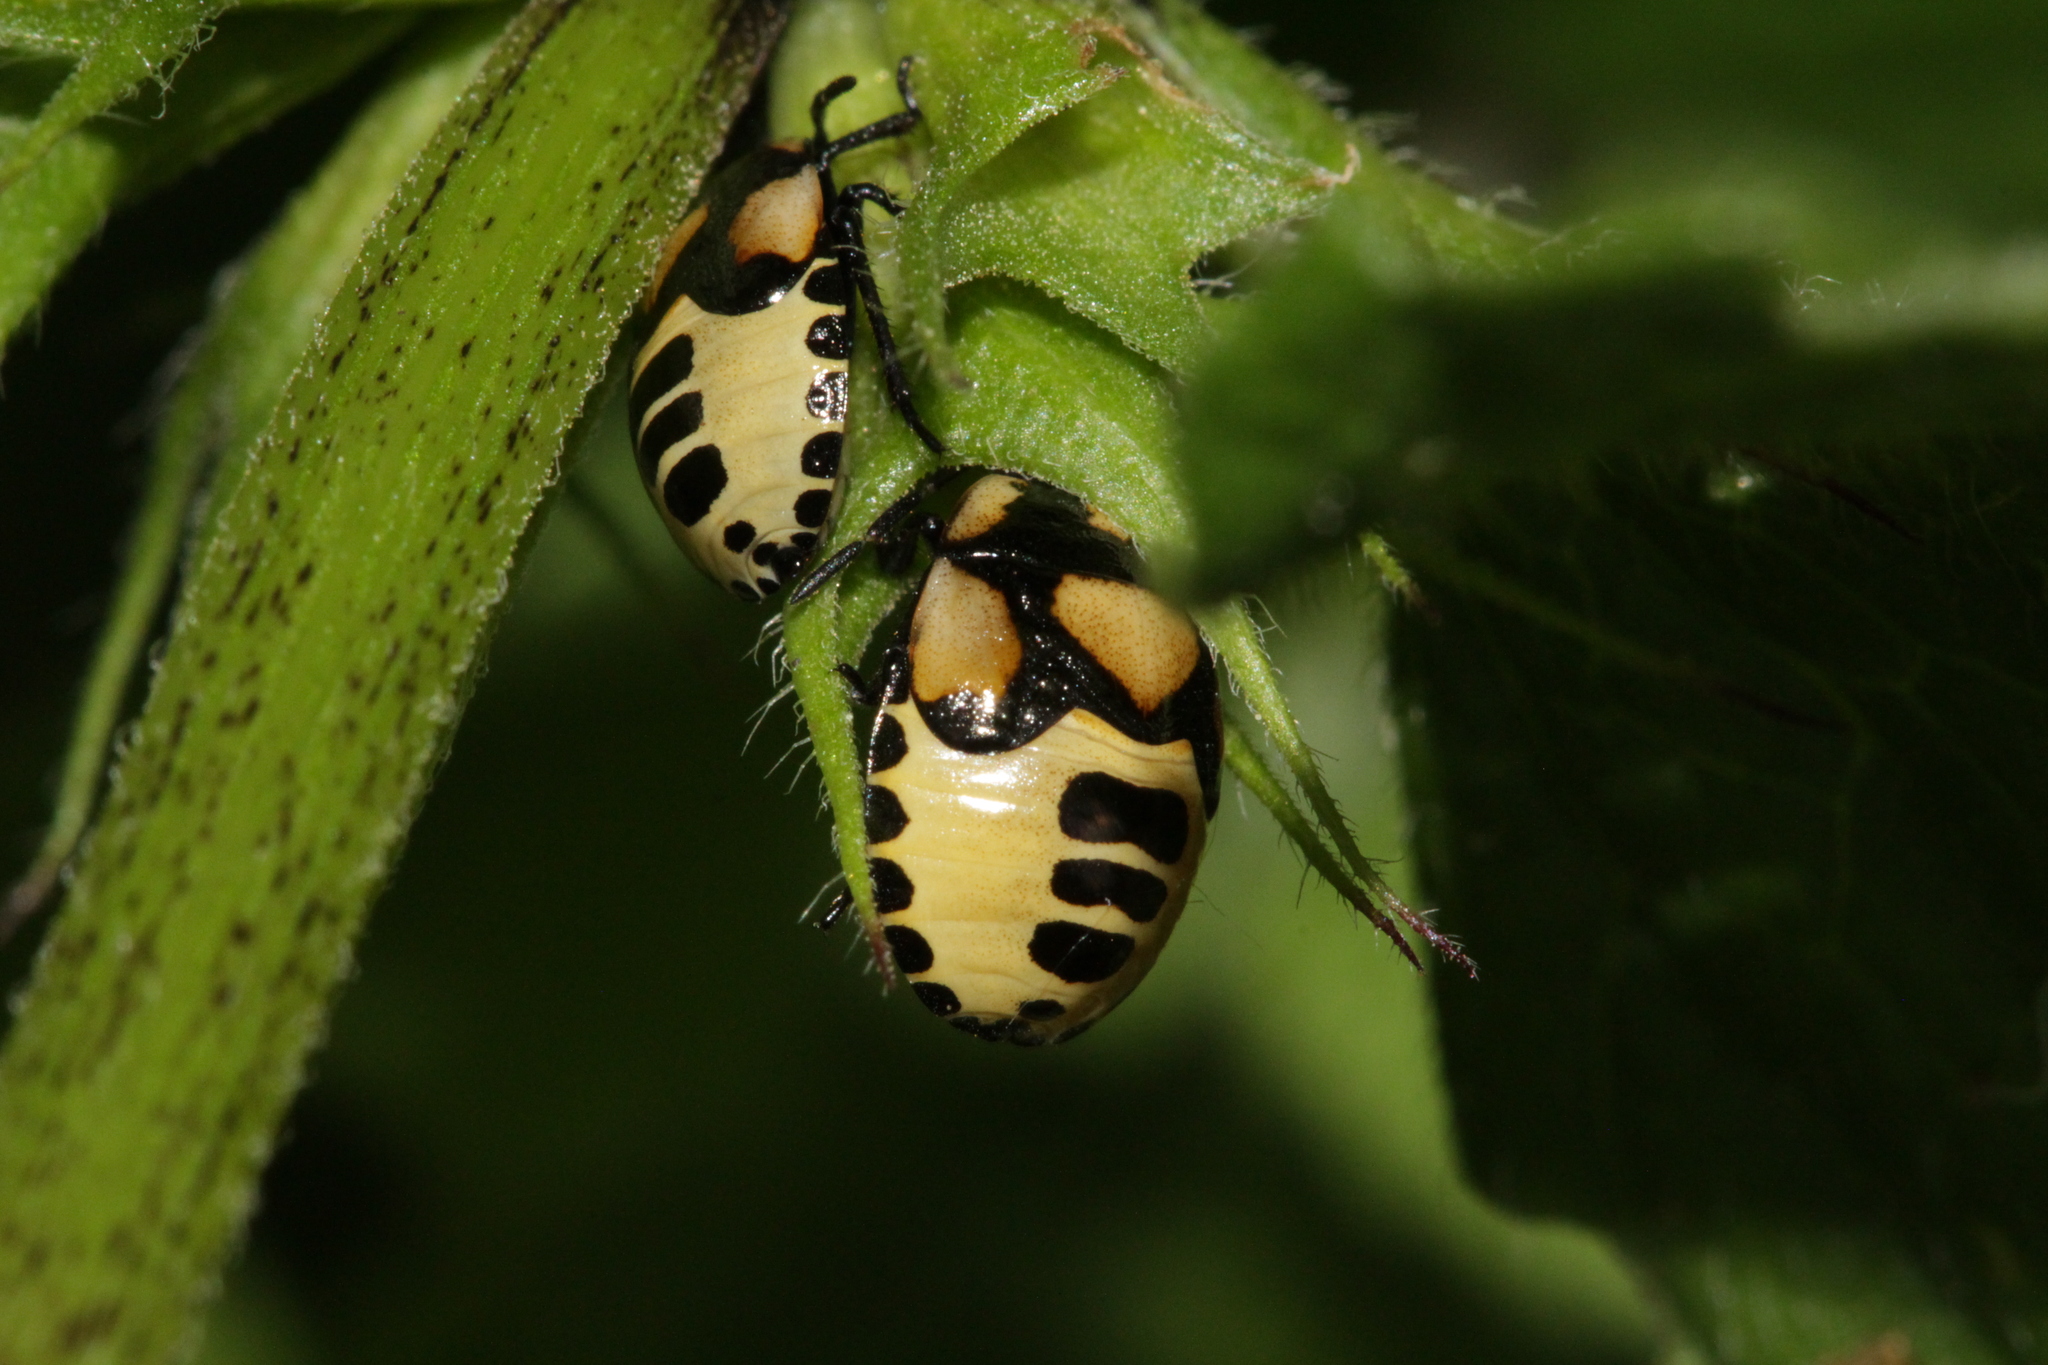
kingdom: Animalia
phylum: Arthropoda
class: Insecta
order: Hemiptera
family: Cydnidae
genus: Tritomegas
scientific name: Tritomegas bicolor
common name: Pied shieldbug
